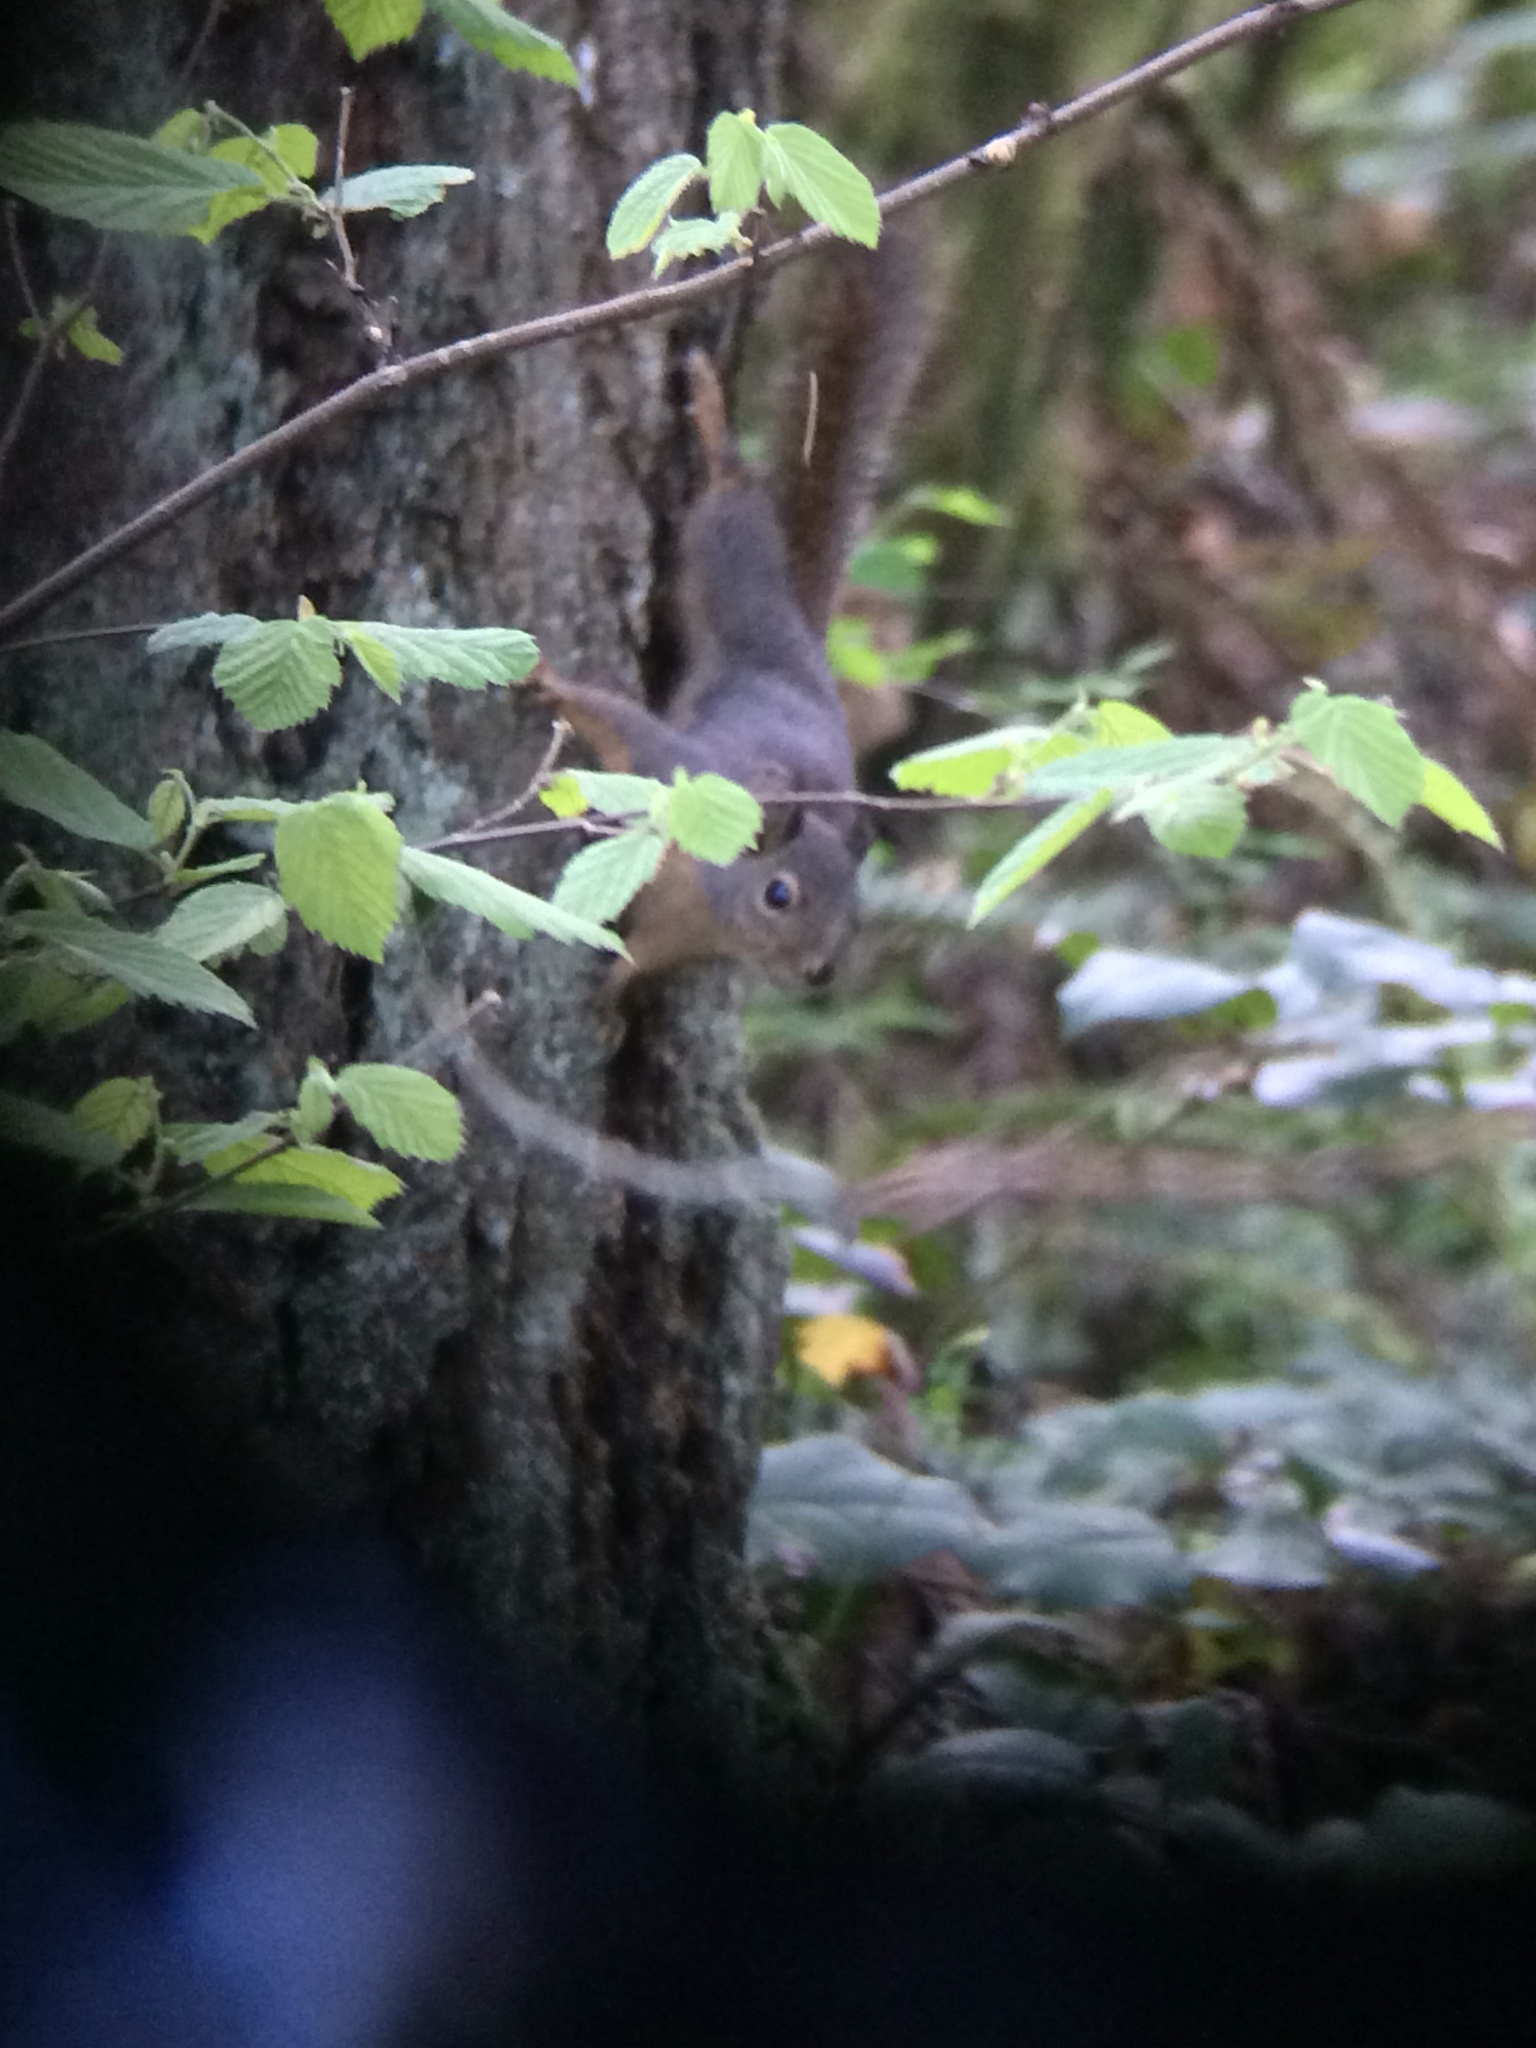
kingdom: Animalia
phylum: Chordata
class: Mammalia
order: Rodentia
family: Sciuridae
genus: Tamiasciurus
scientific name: Tamiasciurus douglasii
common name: Douglas's squirrel
